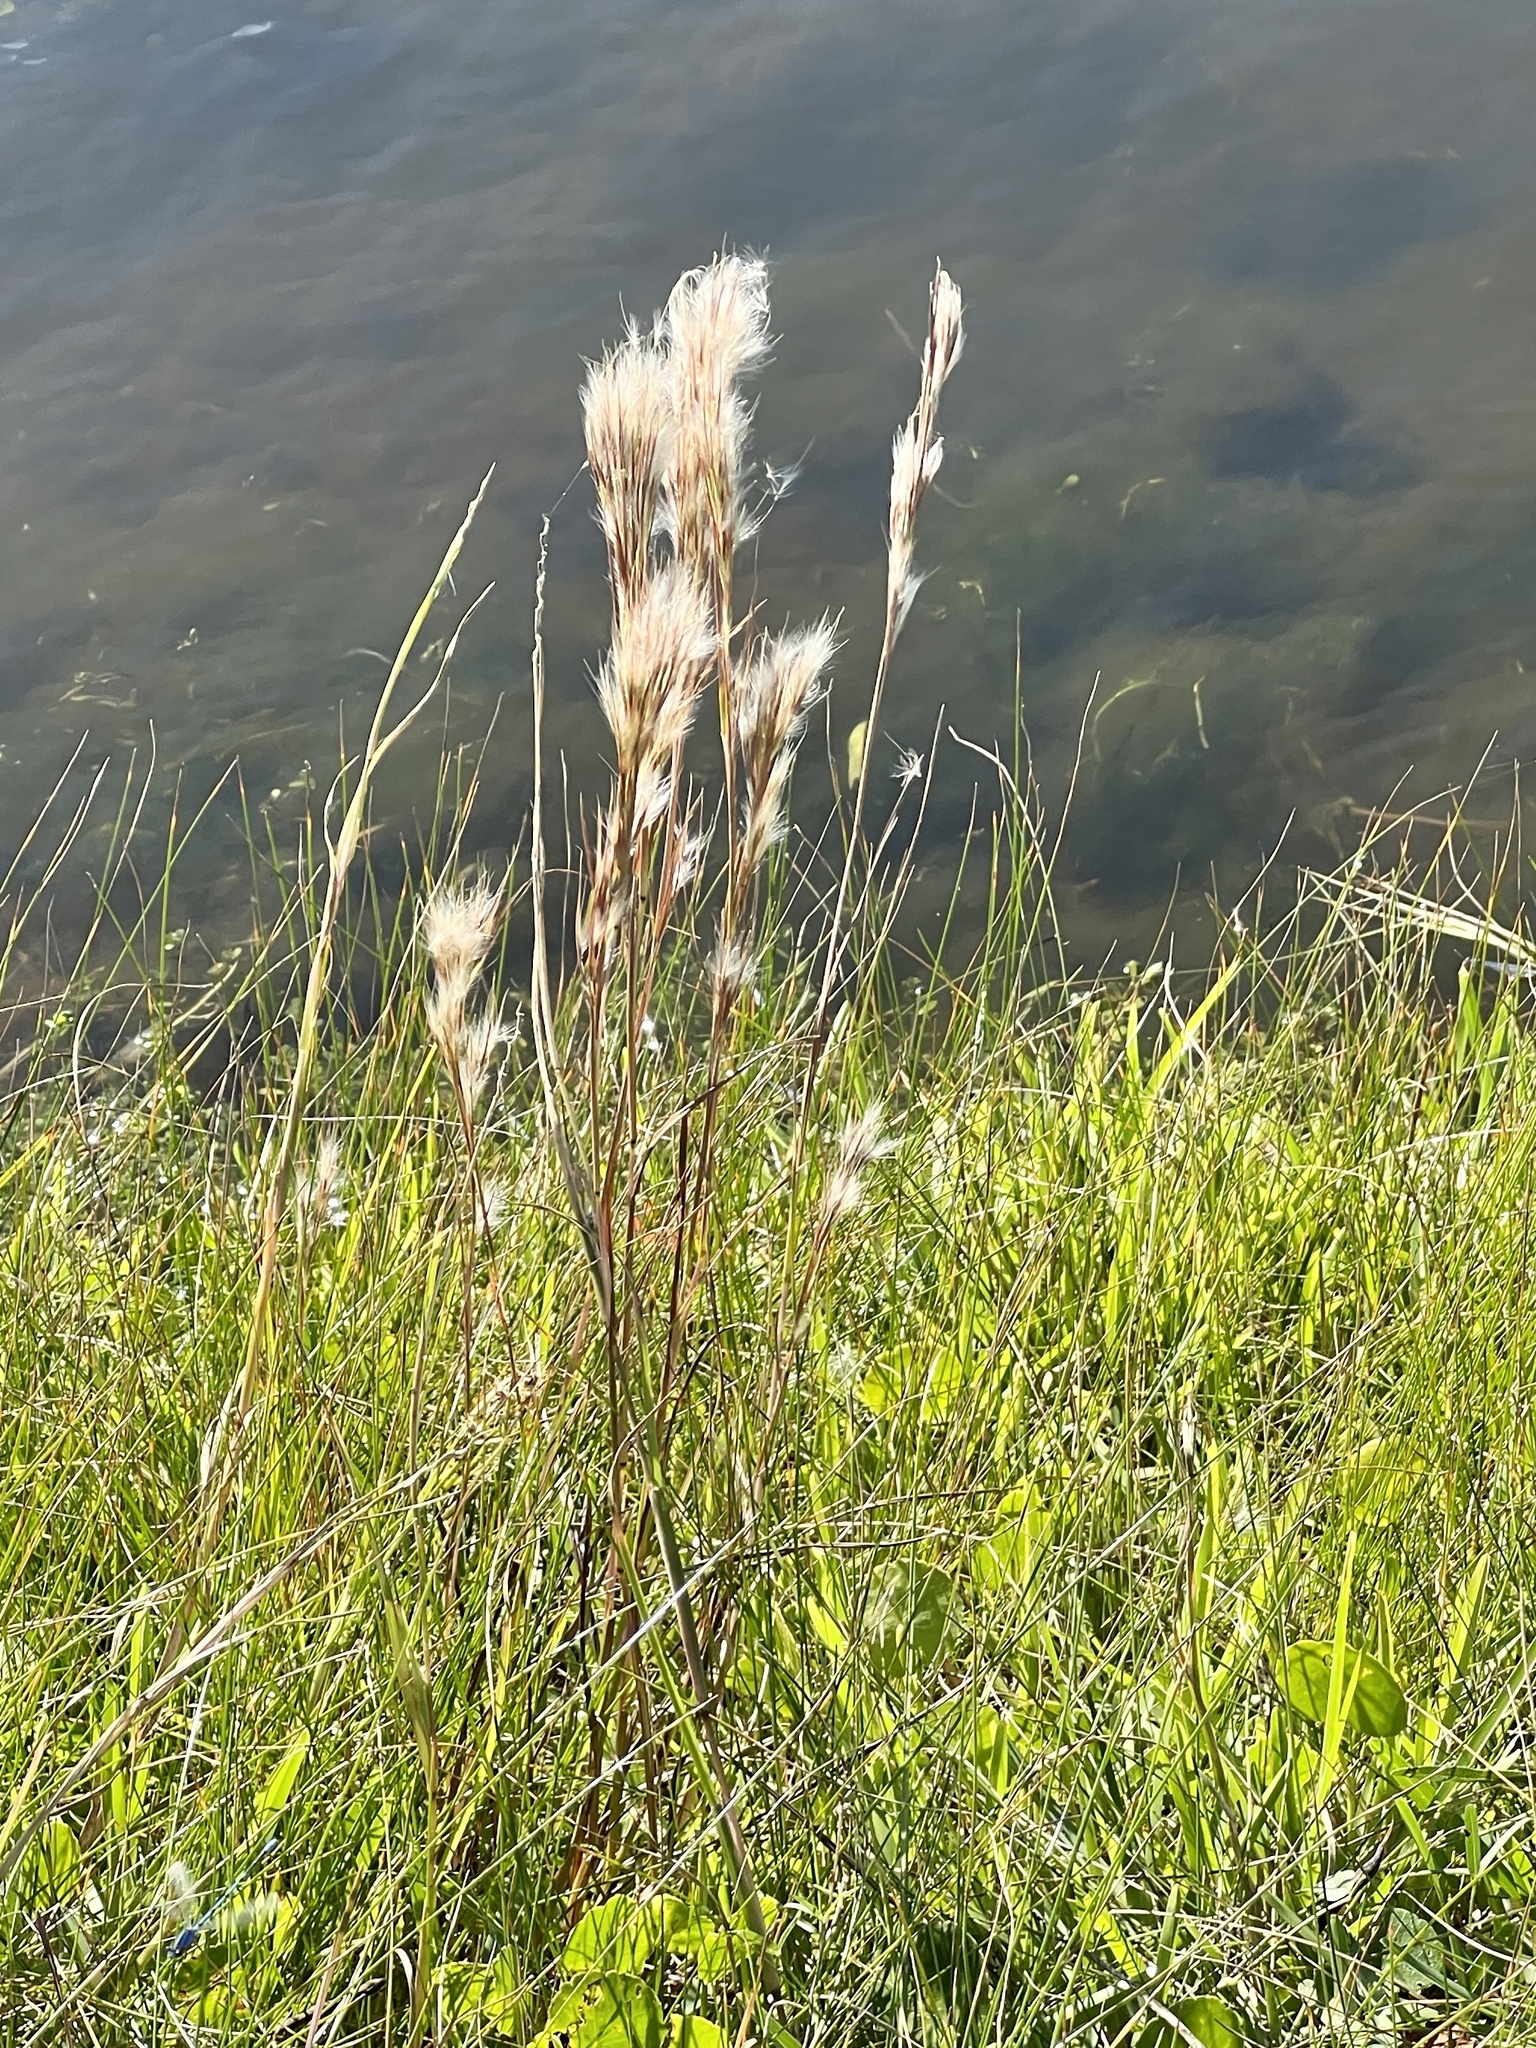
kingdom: Plantae
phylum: Tracheophyta
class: Liliopsida
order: Poales
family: Poaceae
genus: Andropogon
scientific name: Andropogon tenuispatheus
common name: Bushy bluestem
